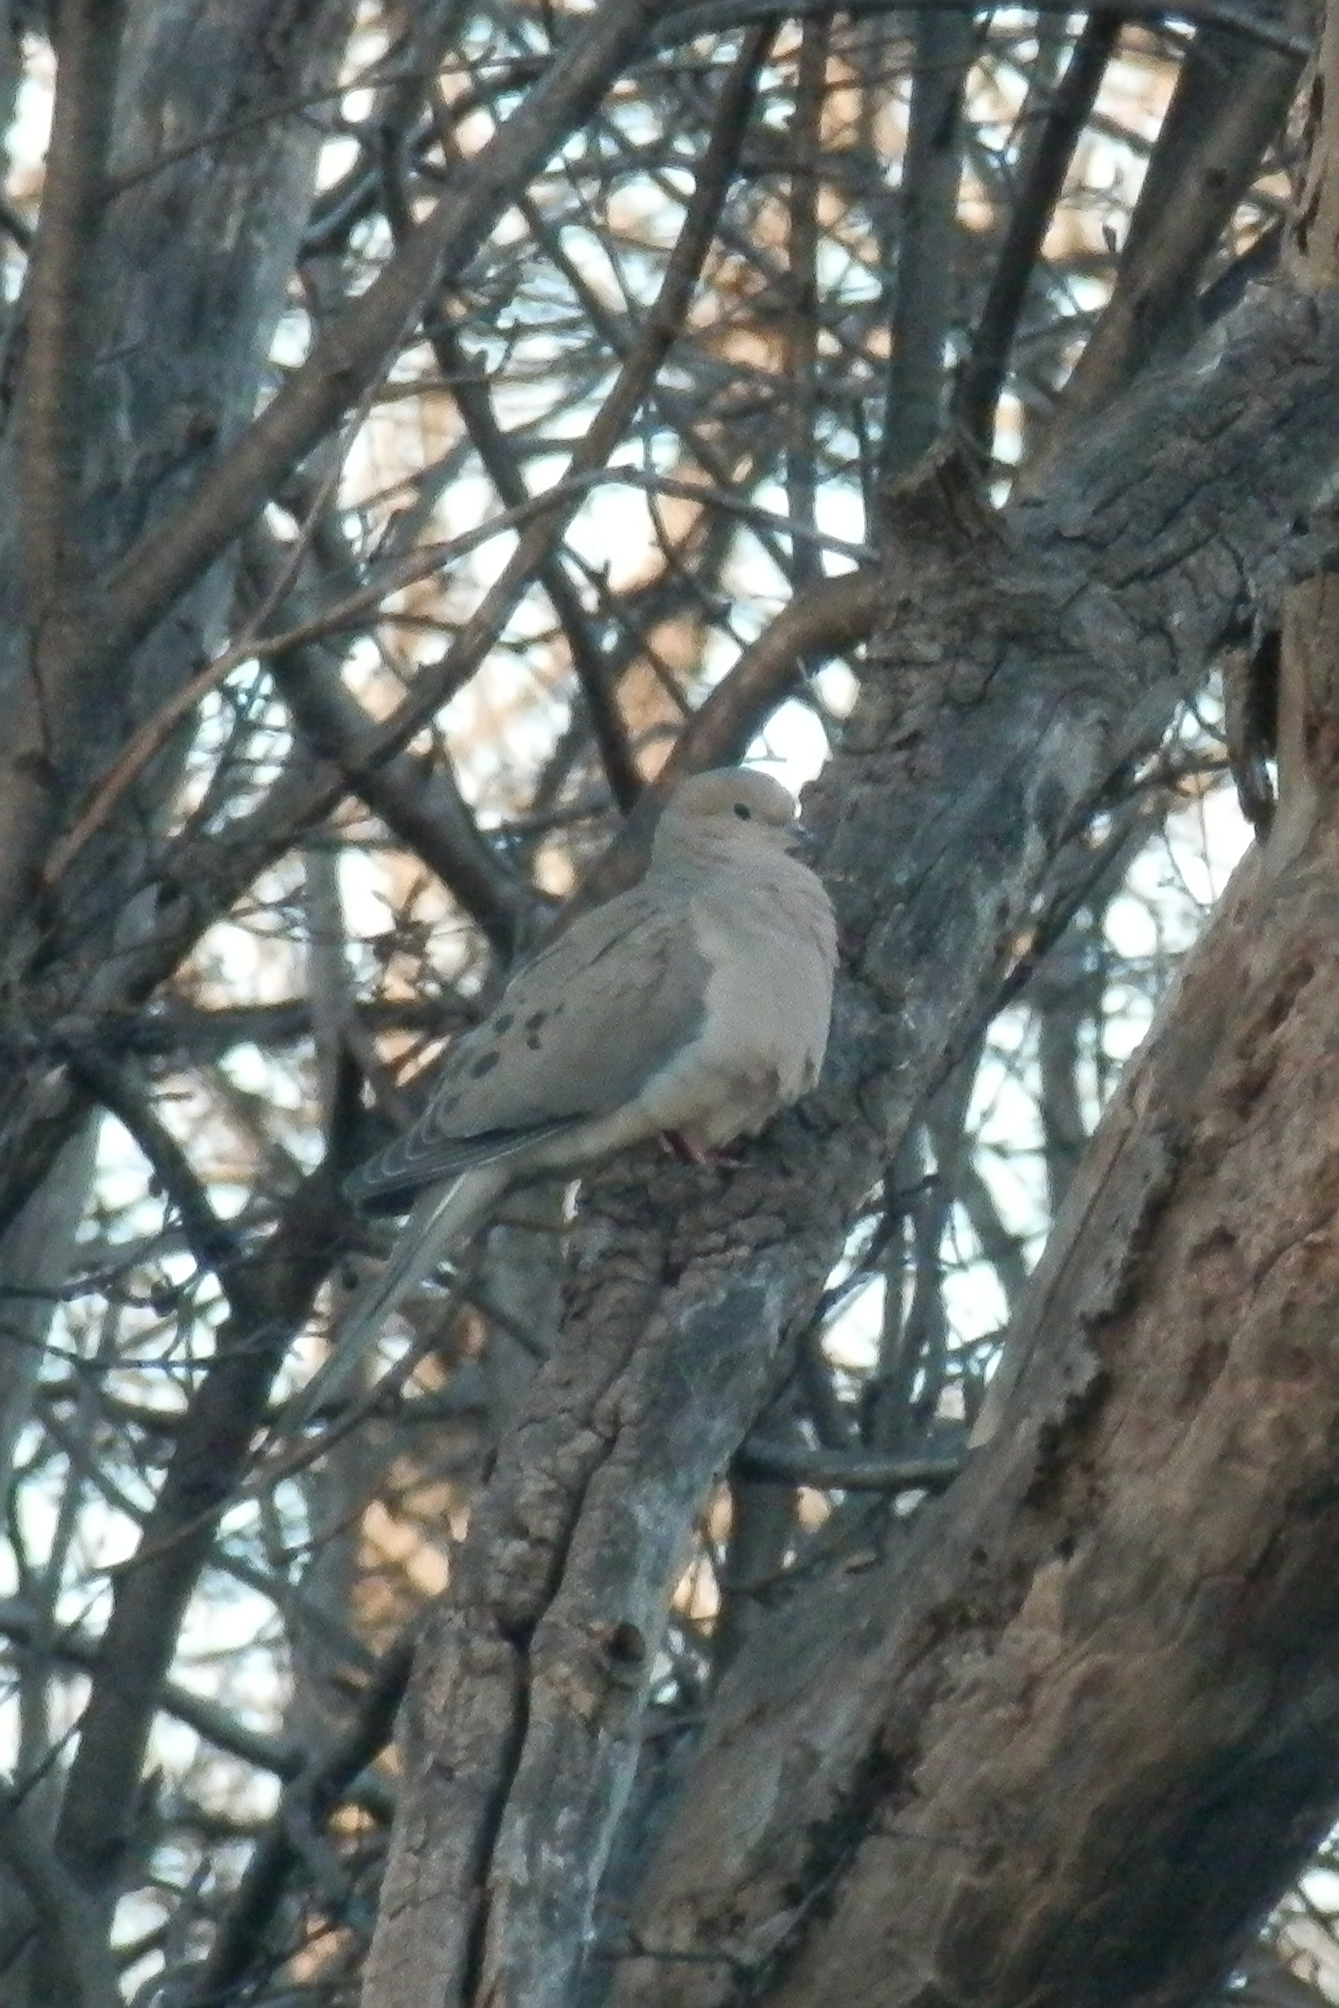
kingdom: Animalia
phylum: Chordata
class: Aves
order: Columbiformes
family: Columbidae
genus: Zenaida
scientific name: Zenaida macroura
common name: Mourning dove
